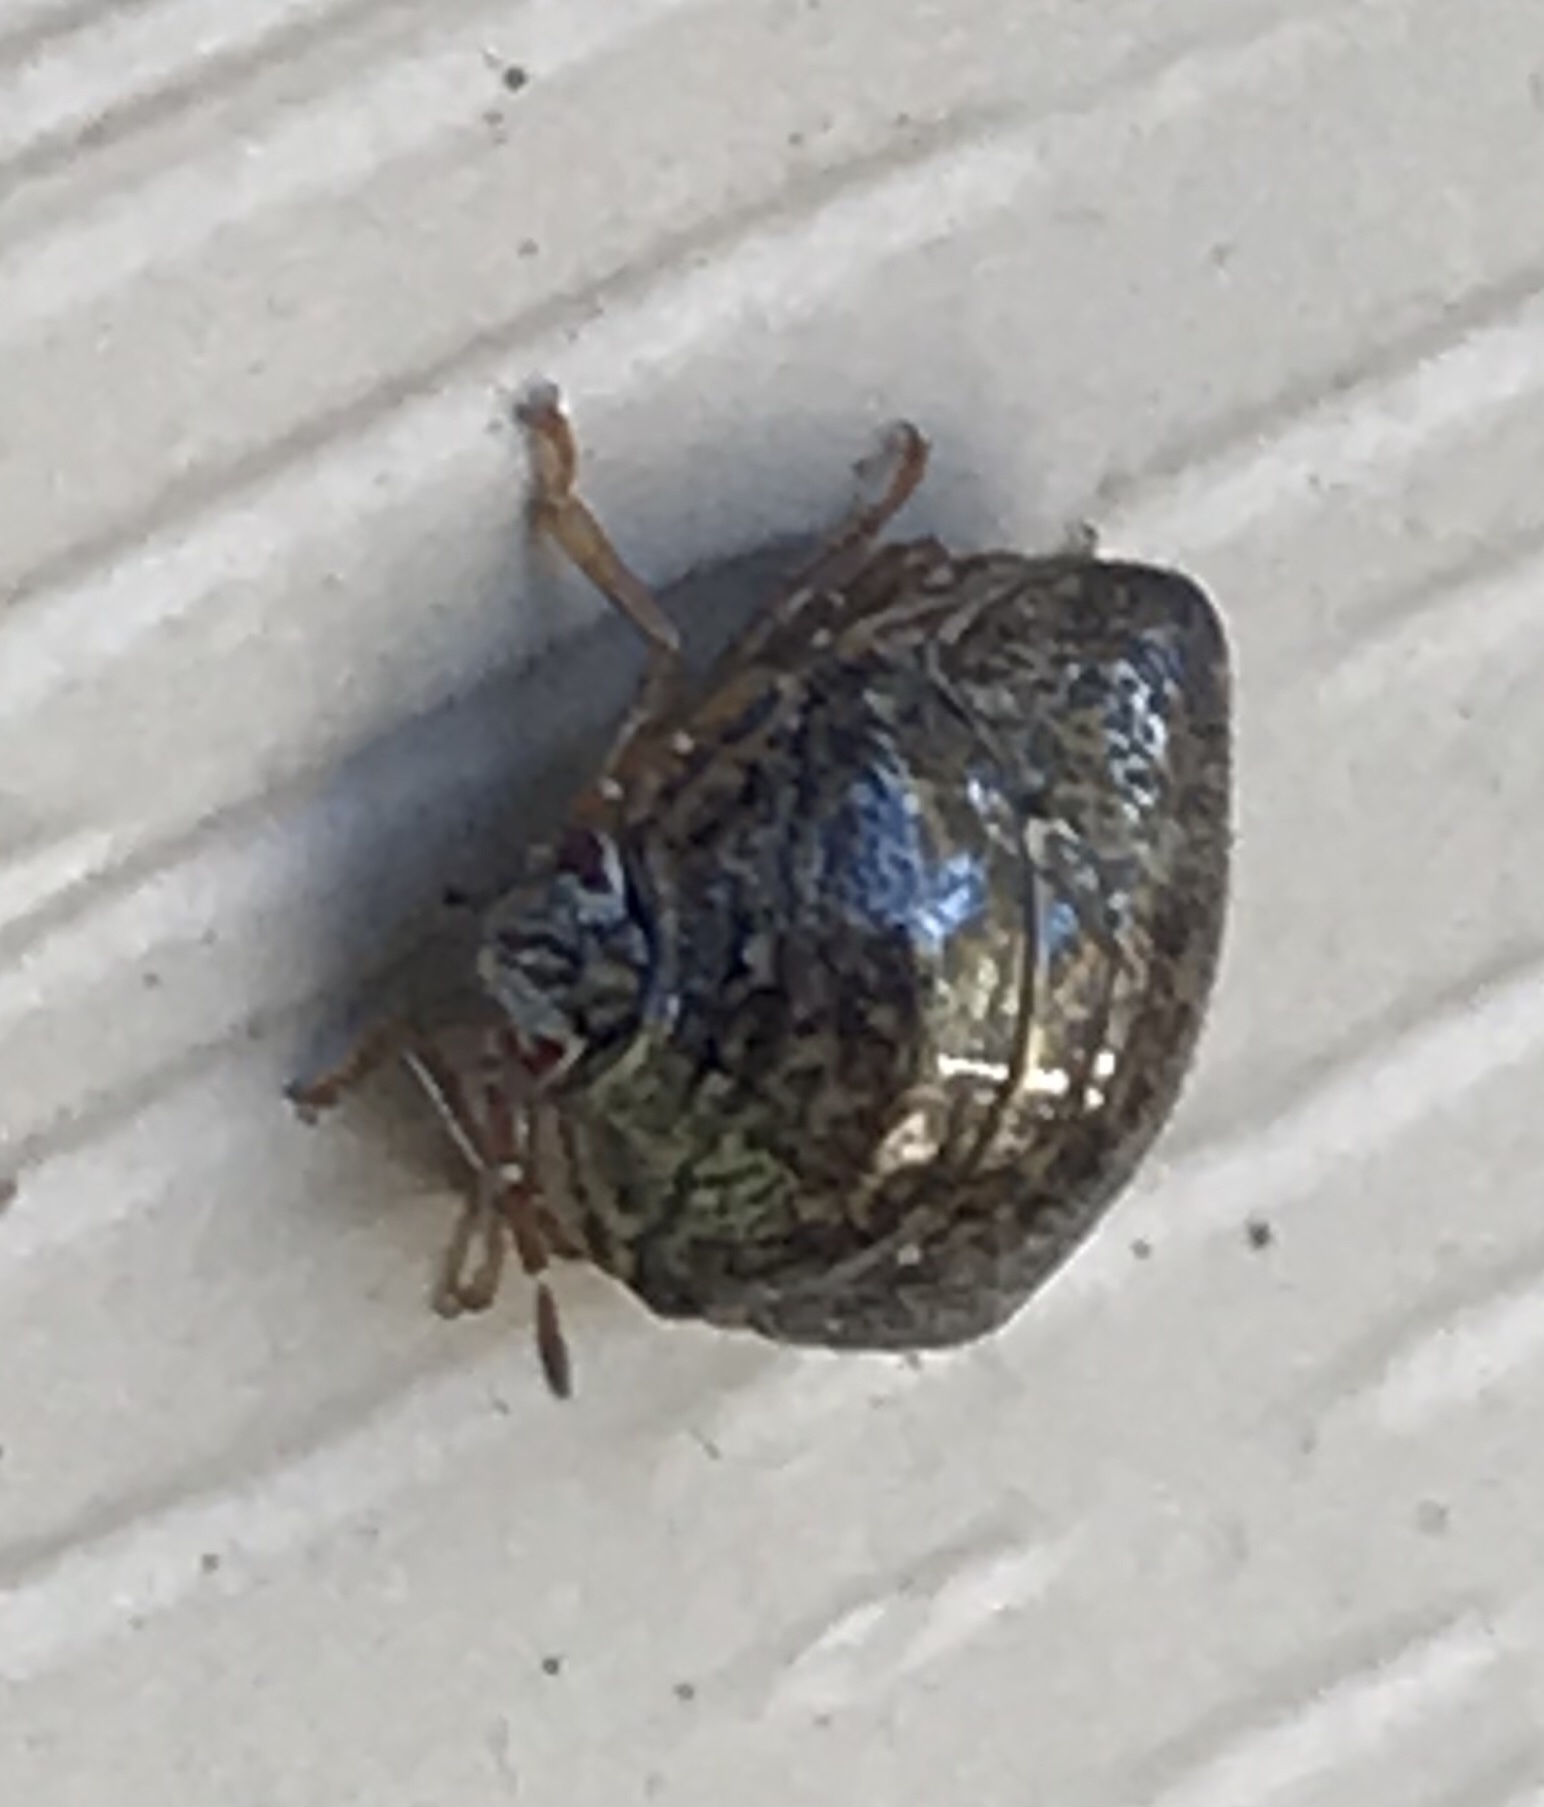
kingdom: Animalia
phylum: Arthropoda
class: Insecta
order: Hemiptera
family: Plataspidae
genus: Megacopta
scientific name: Megacopta cribraria
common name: Bean plataspid
